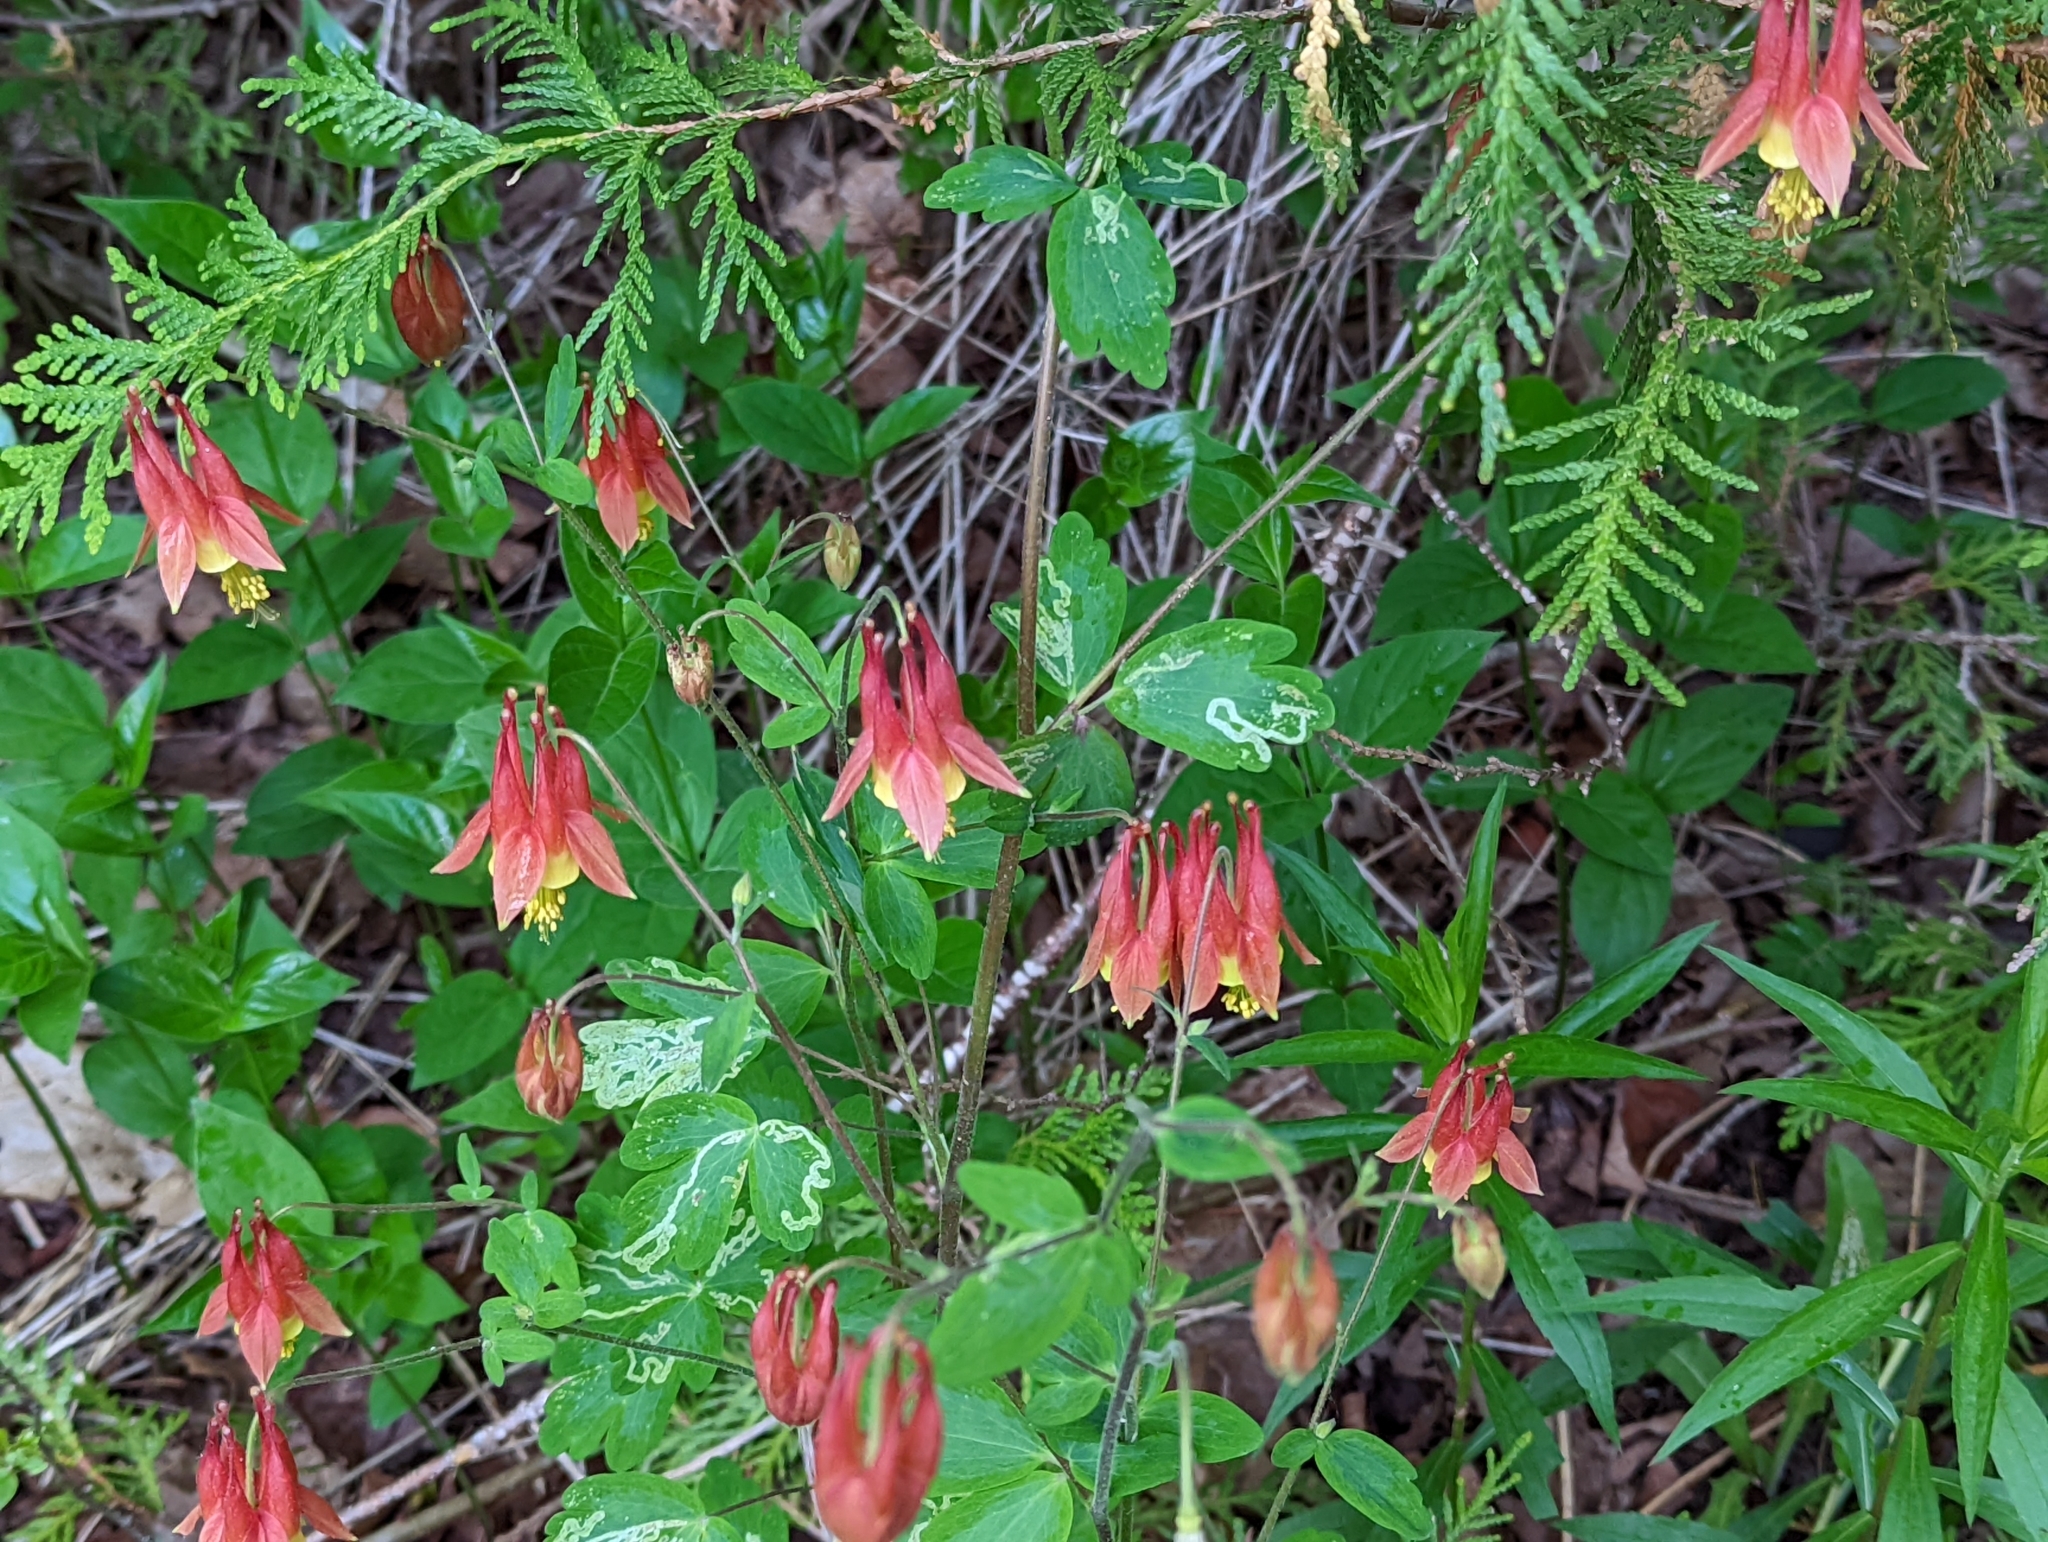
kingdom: Plantae
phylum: Tracheophyta
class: Magnoliopsida
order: Ranunculales
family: Ranunculaceae
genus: Aquilegia
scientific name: Aquilegia canadensis
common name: American columbine
